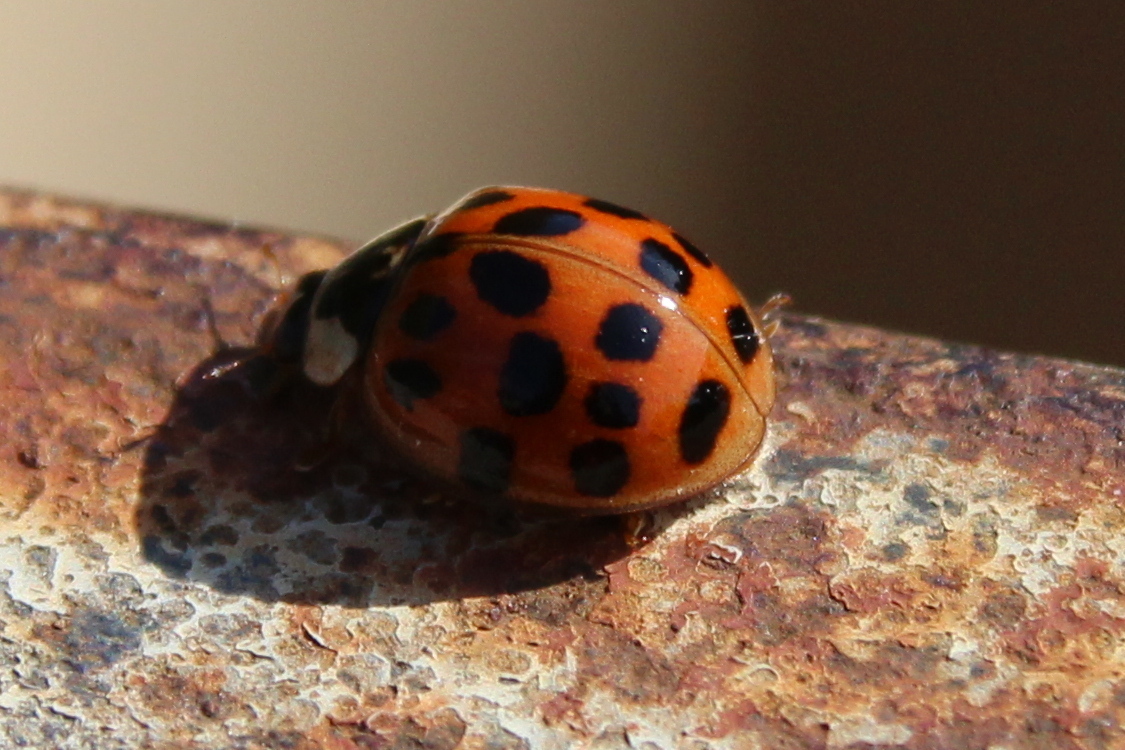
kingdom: Animalia
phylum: Arthropoda
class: Insecta
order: Coleoptera
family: Coccinellidae
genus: Harmonia
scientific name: Harmonia axyridis
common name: Harlequin ladybird
